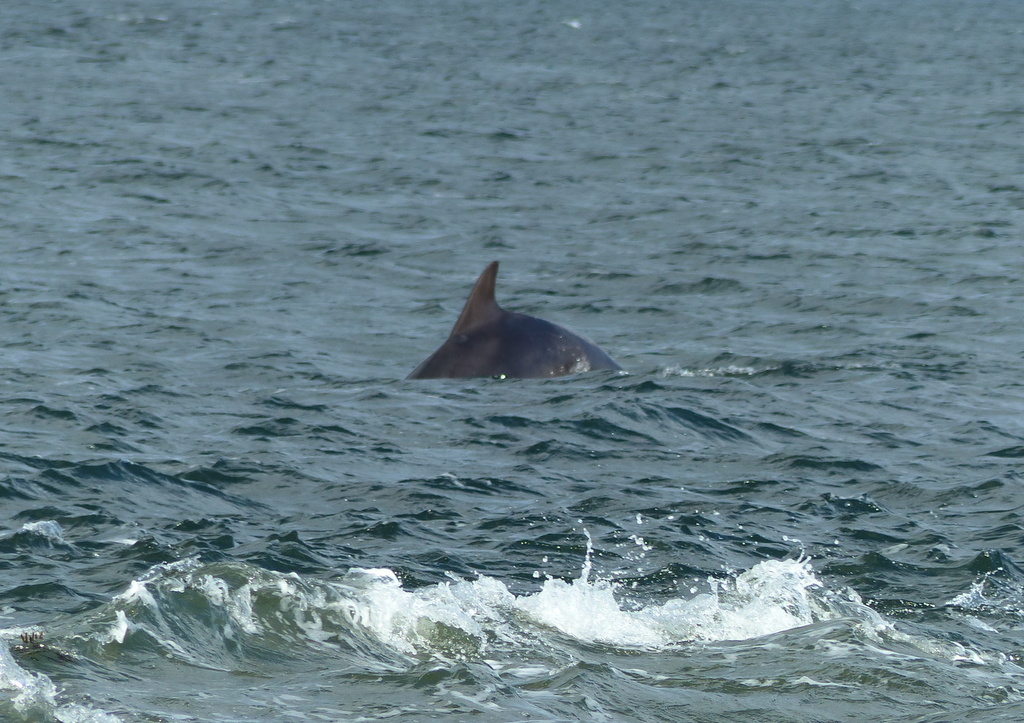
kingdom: Animalia
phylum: Chordata
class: Mammalia
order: Cetacea
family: Delphinidae
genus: Tursiops
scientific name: Tursiops truncatus
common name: Bottlenose dolphin
